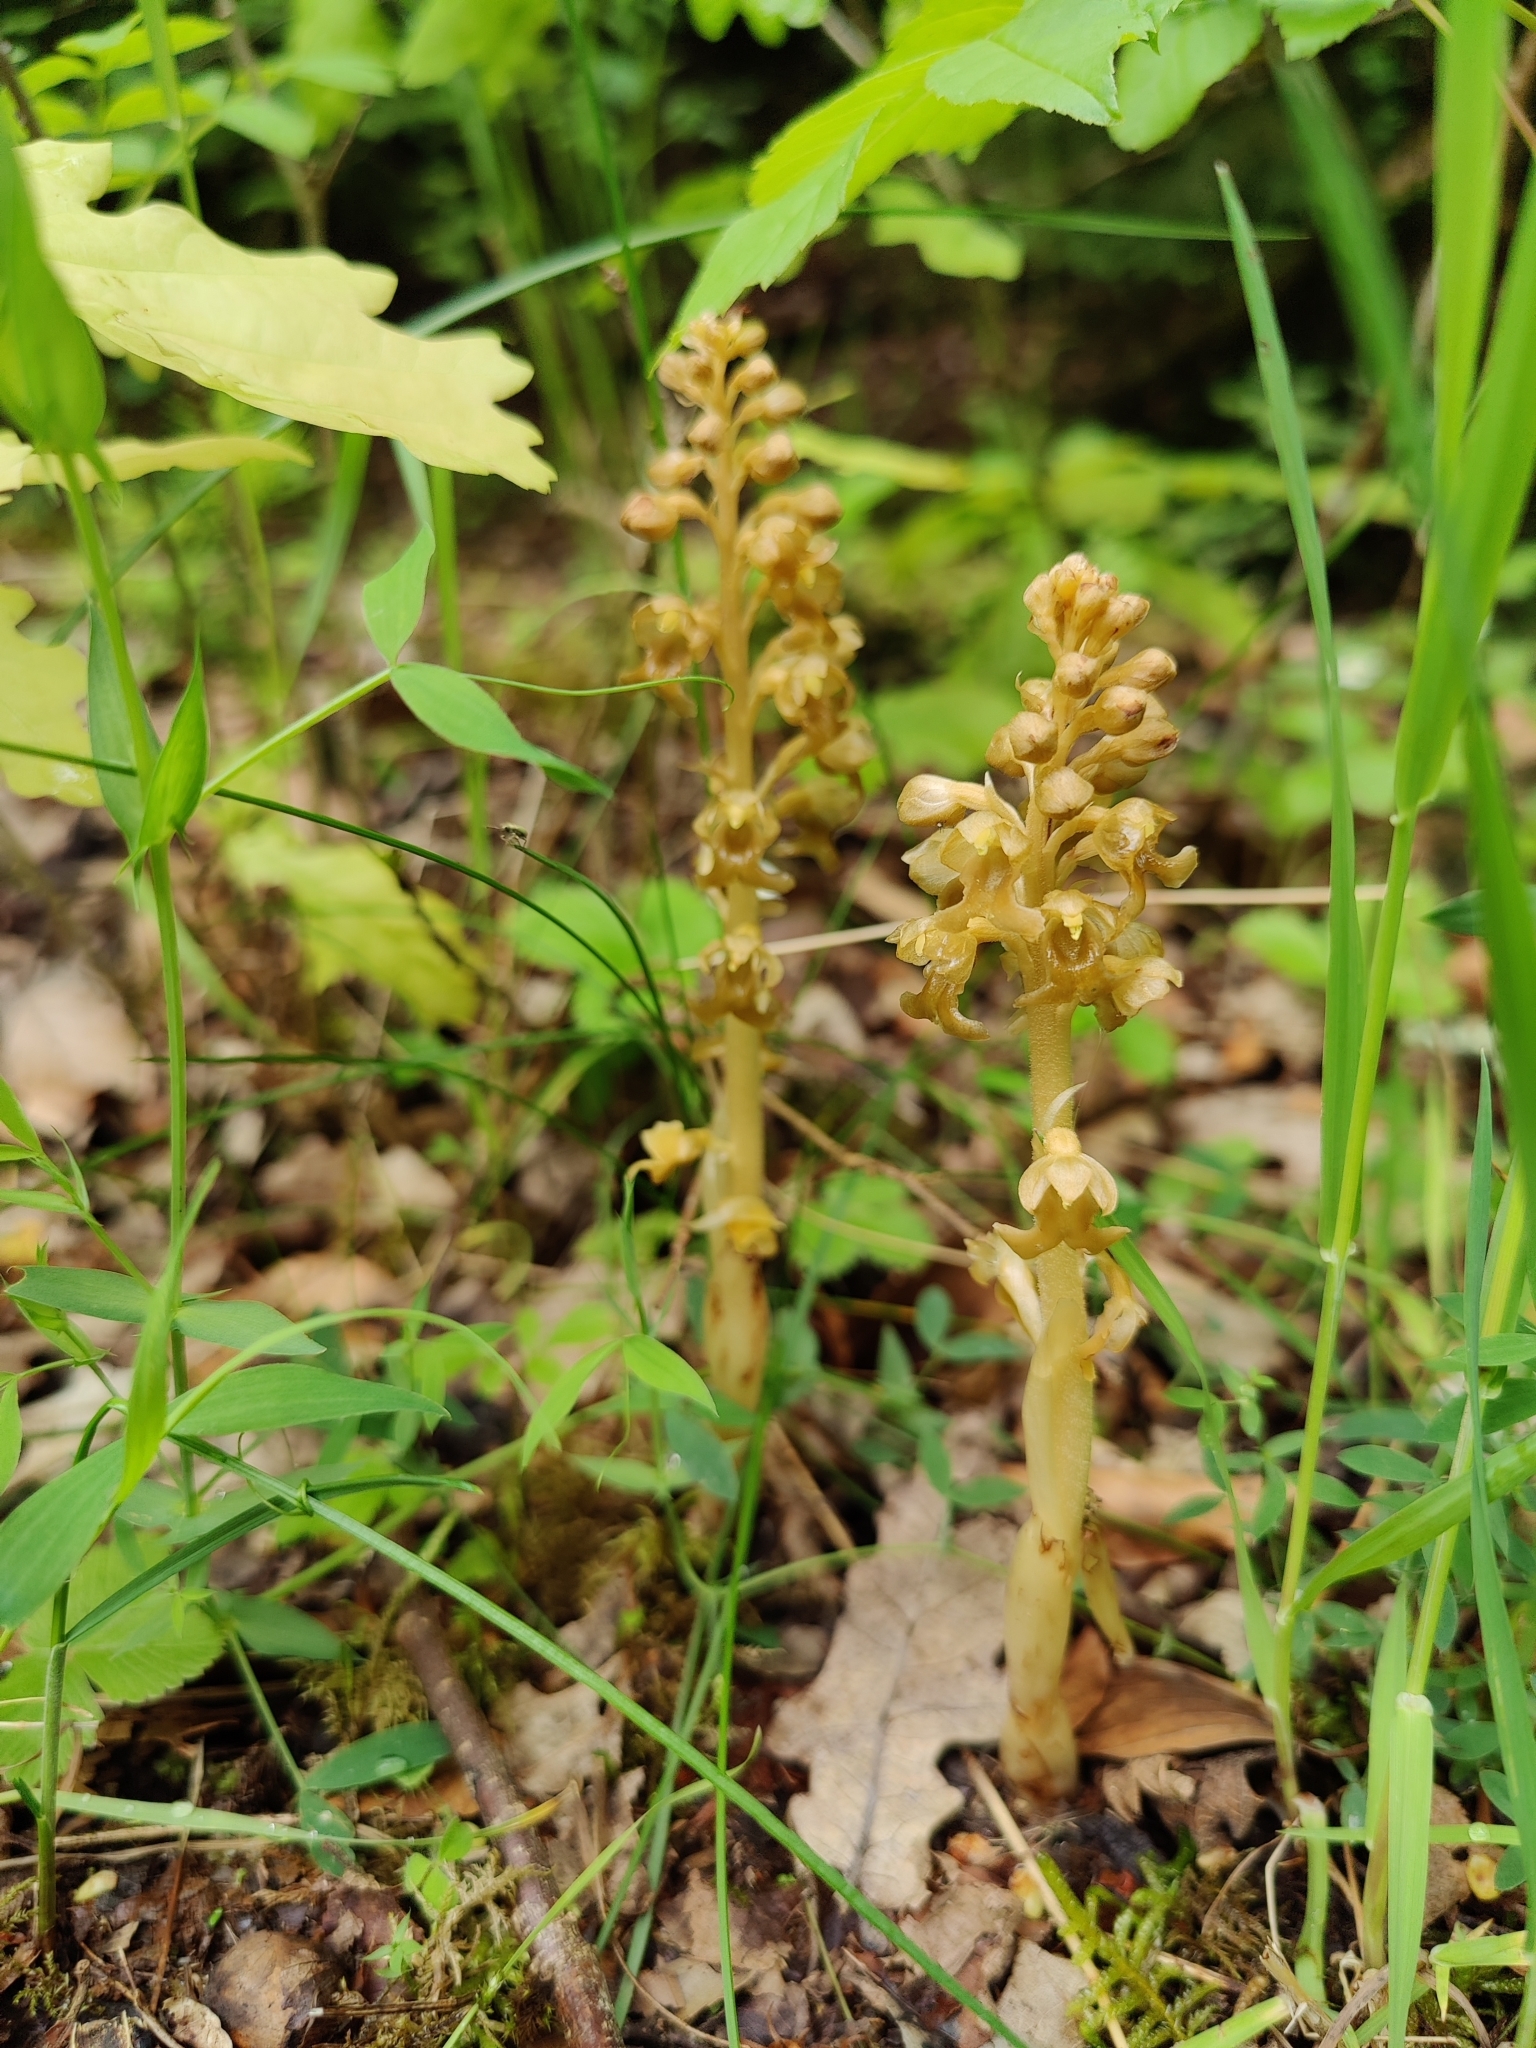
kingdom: Plantae
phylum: Tracheophyta
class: Liliopsida
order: Asparagales
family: Orchidaceae
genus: Neottia
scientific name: Neottia nidus-avis
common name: Bird's-nest orchid
